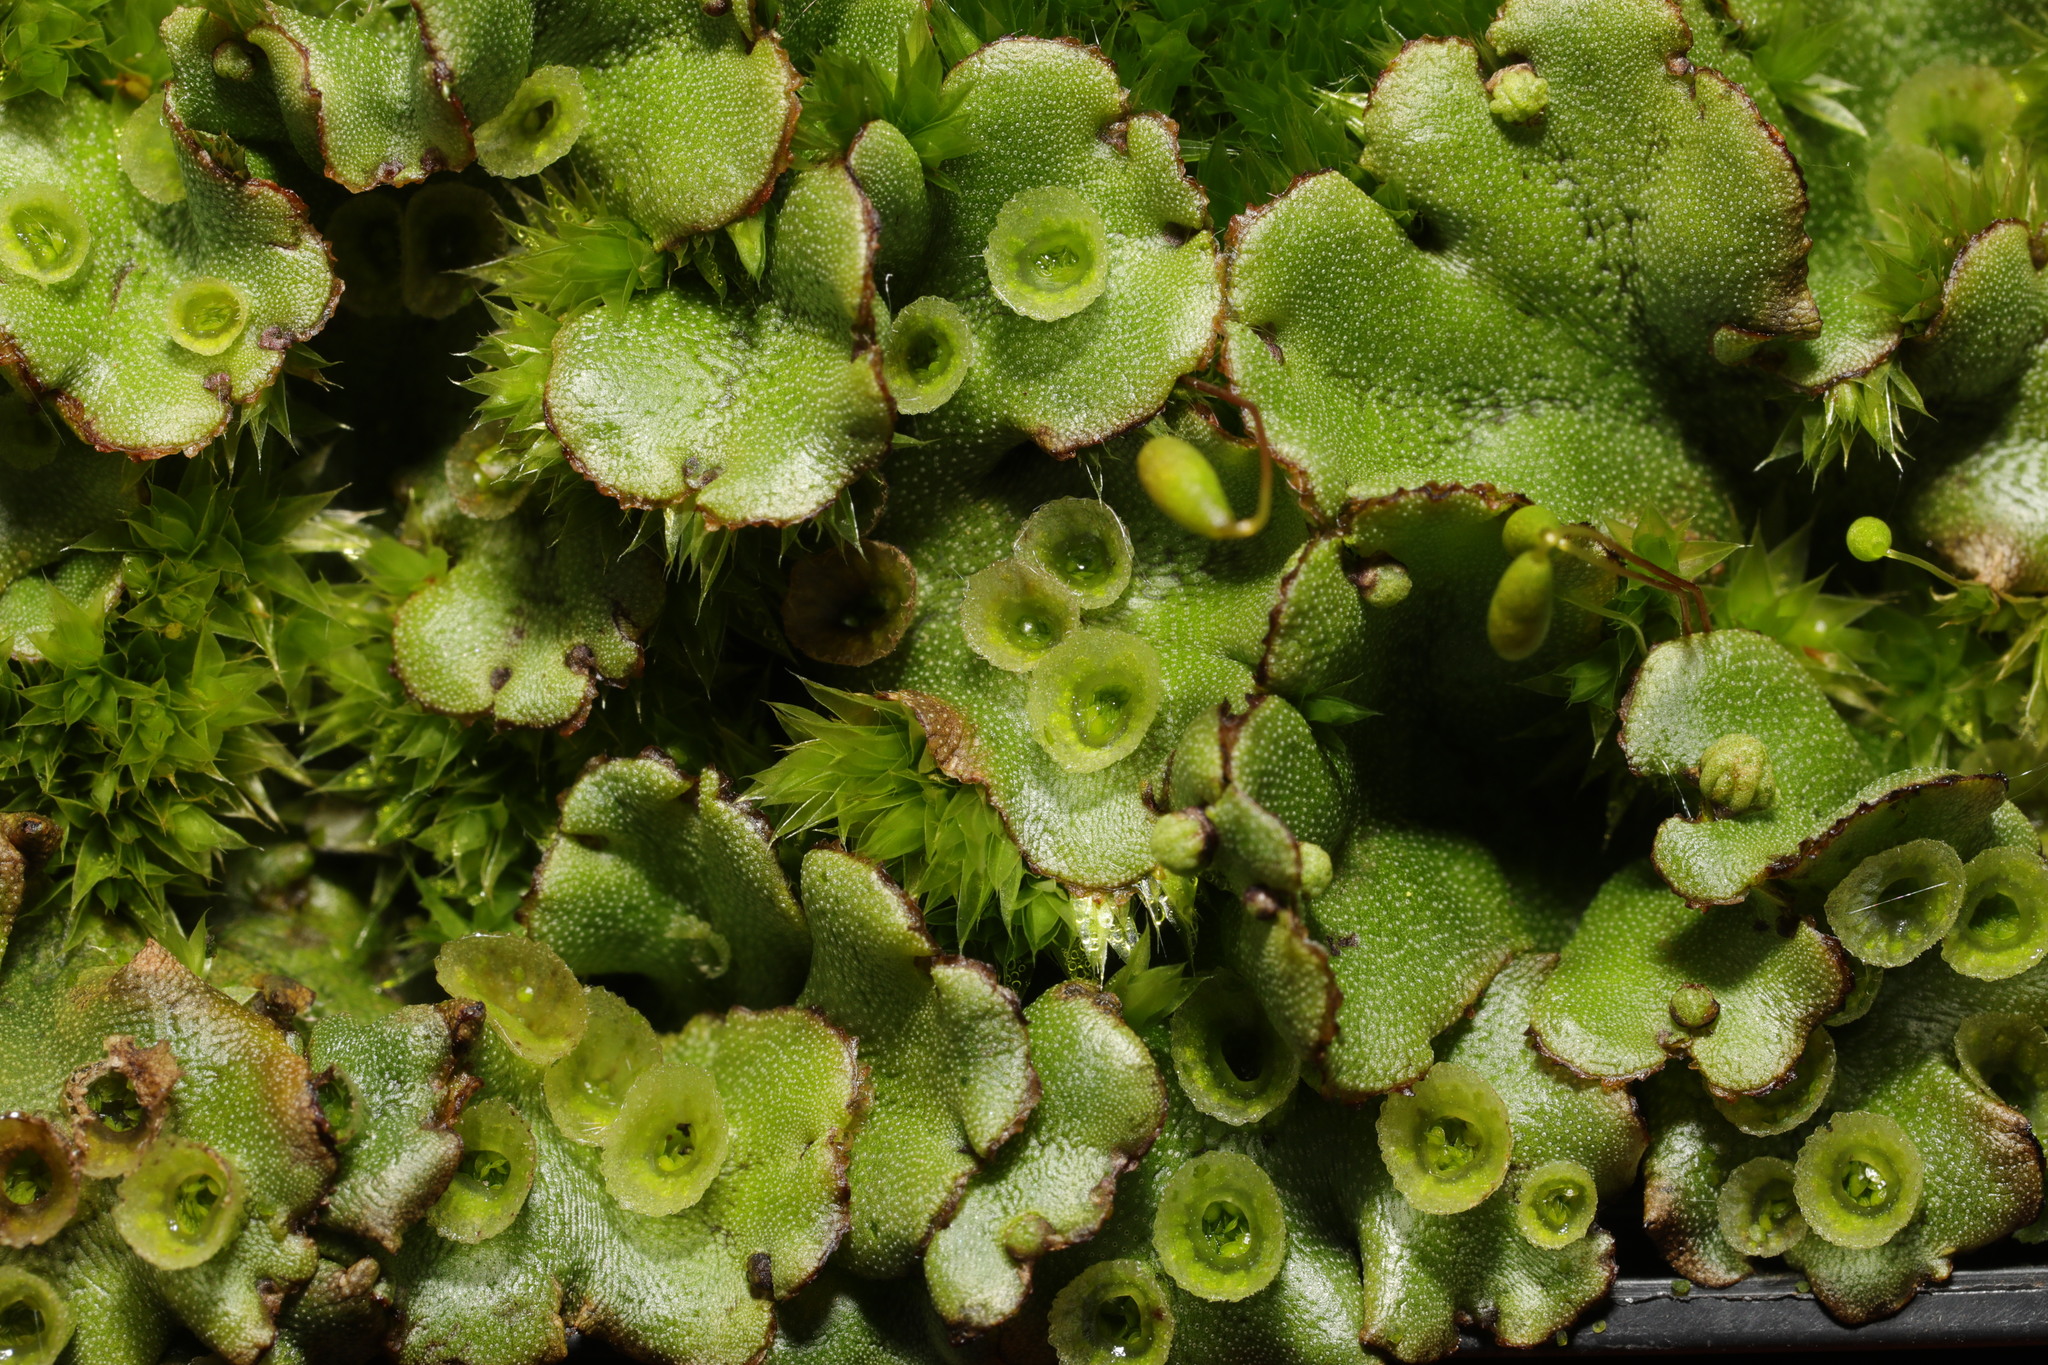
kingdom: Plantae
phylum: Marchantiophyta
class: Marchantiopsida
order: Marchantiales
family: Marchantiaceae
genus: Marchantia
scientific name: Marchantia polymorpha
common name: Common liverwort
